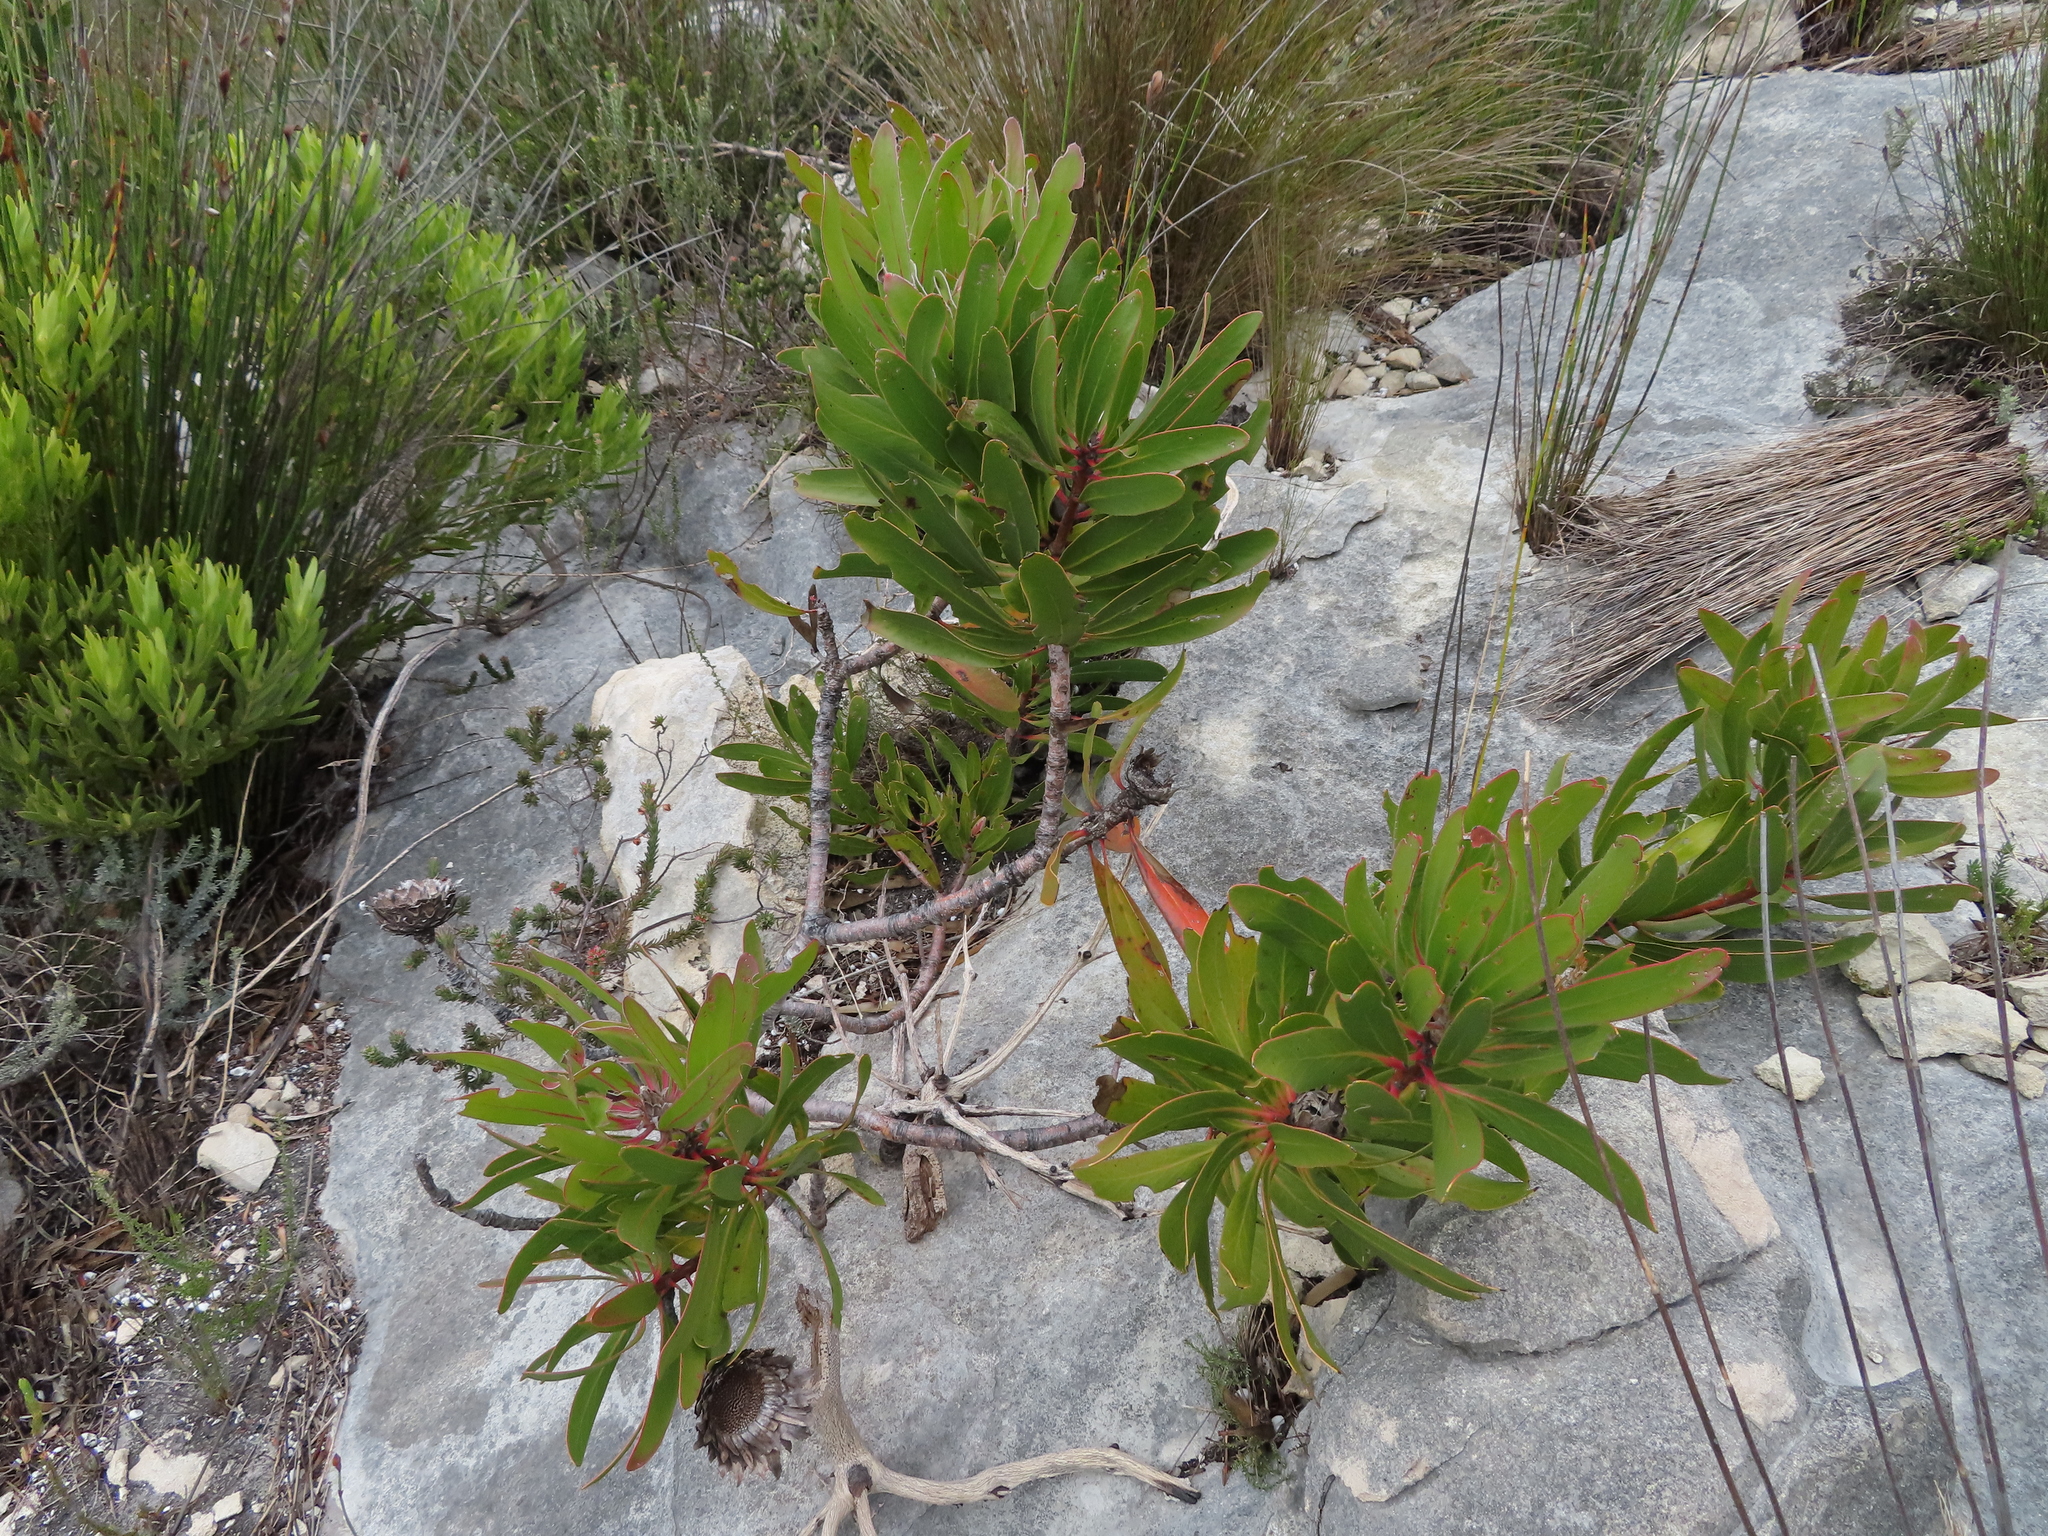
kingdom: Plantae
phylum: Tracheophyta
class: Magnoliopsida
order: Proteales
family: Proteaceae
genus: Protea
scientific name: Protea obtusifolia
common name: Bredasdorp sugarbush
